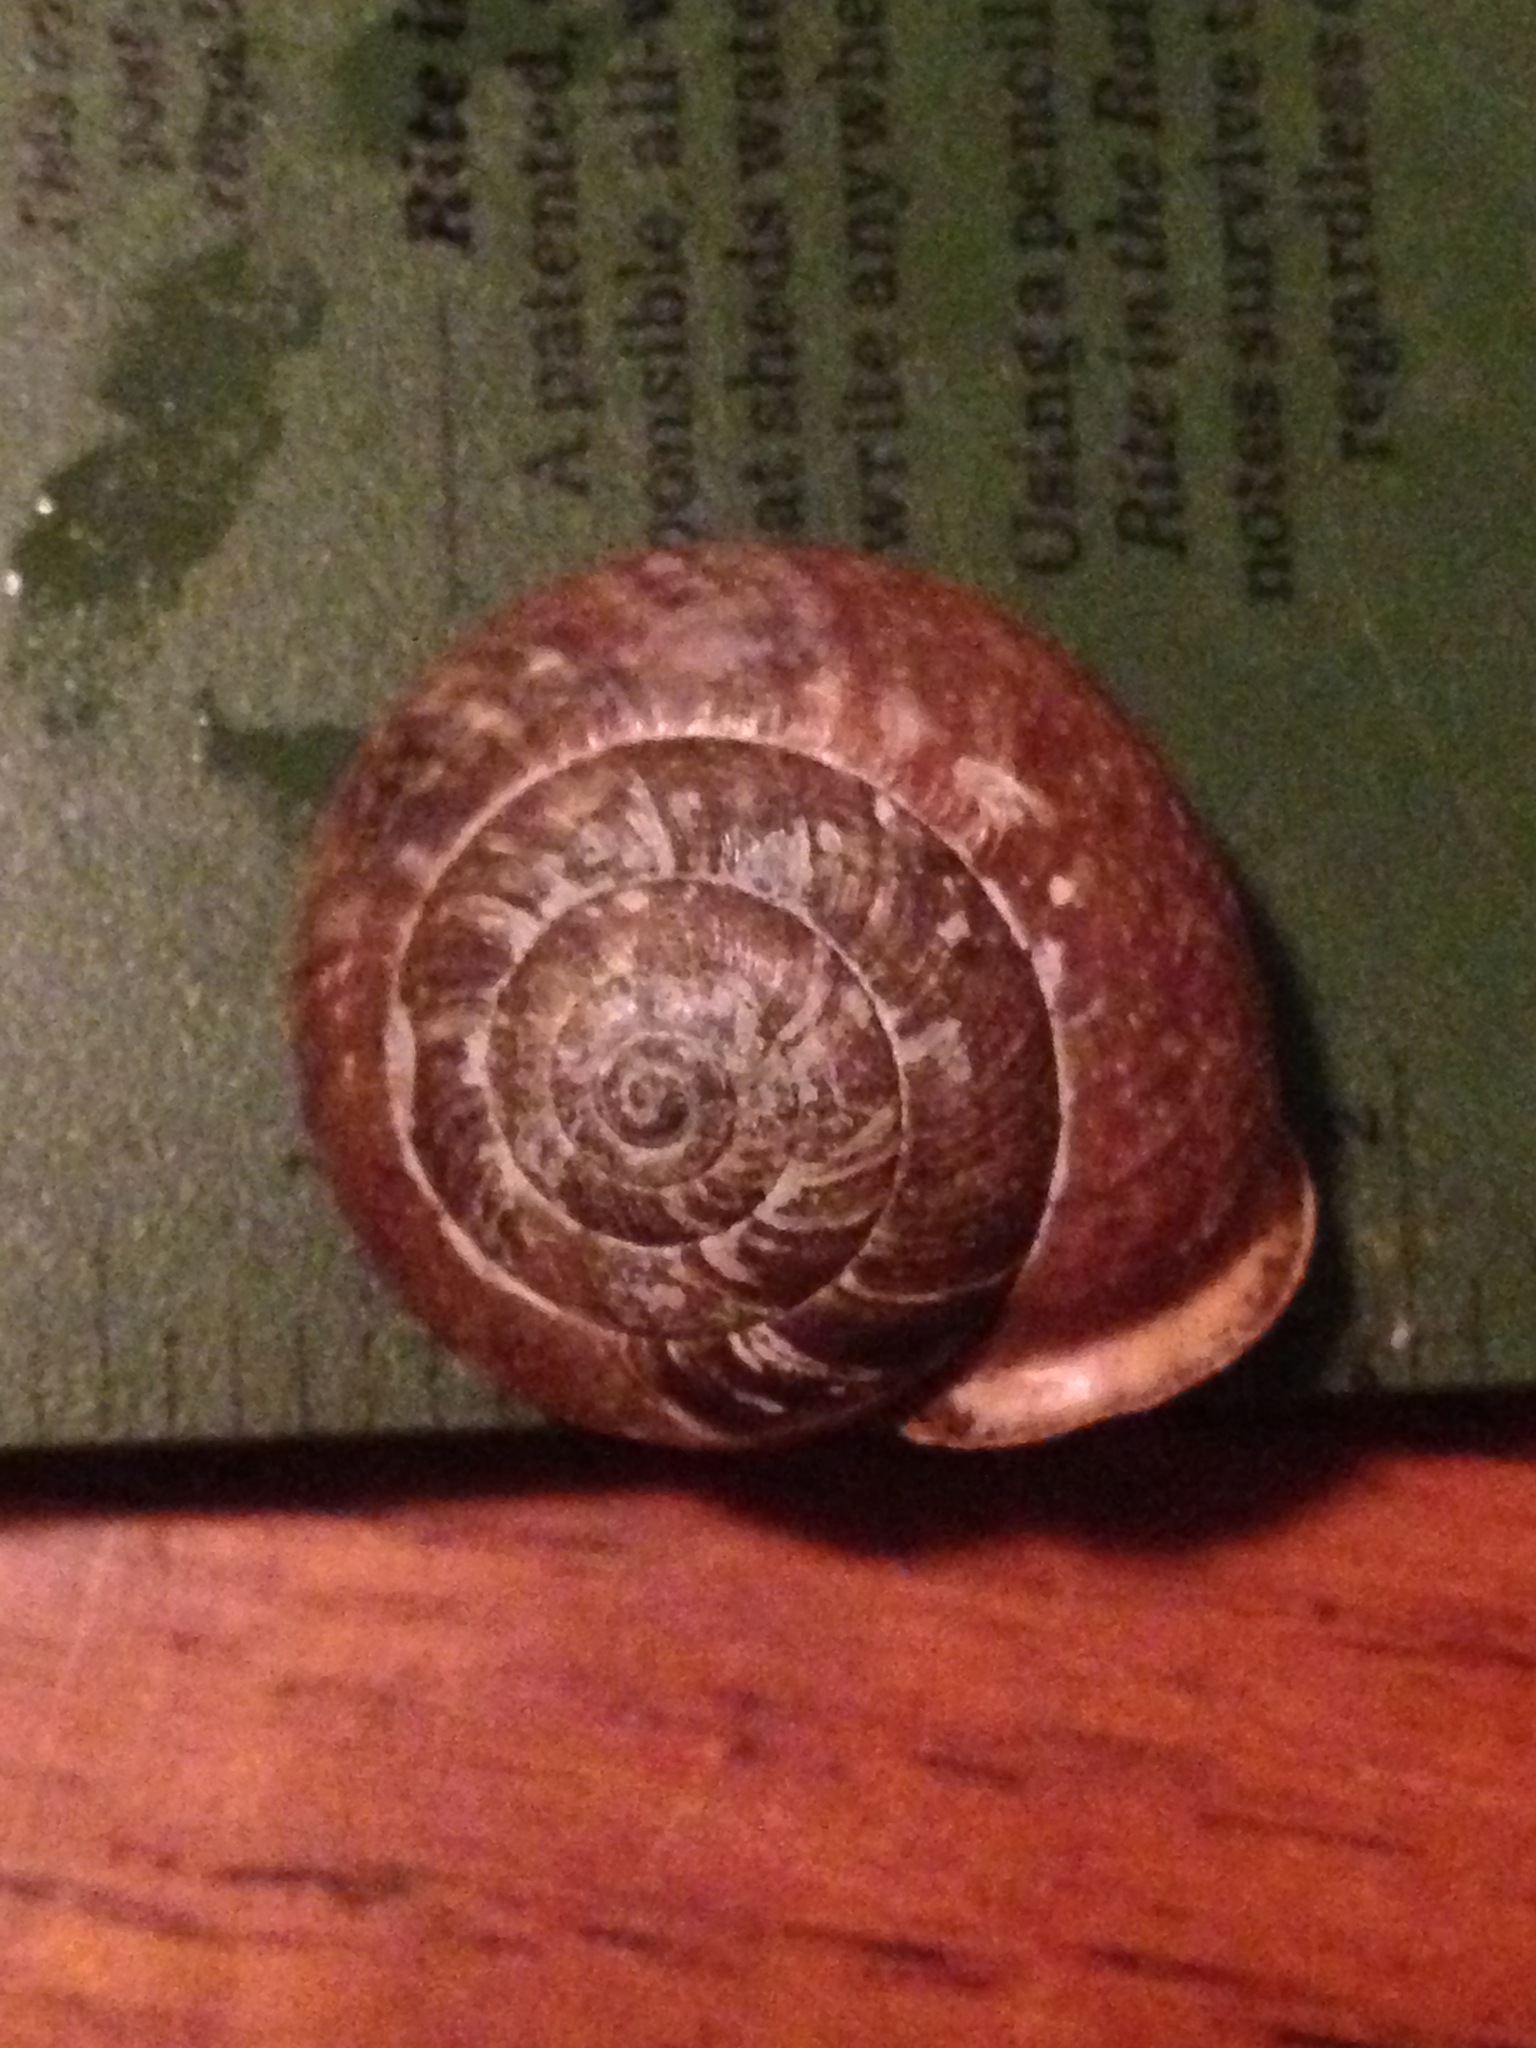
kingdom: Animalia
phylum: Mollusca
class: Gastropoda
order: Stylommatophora
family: Polygyridae
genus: Cryptomastix
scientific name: Cryptomastix devia
